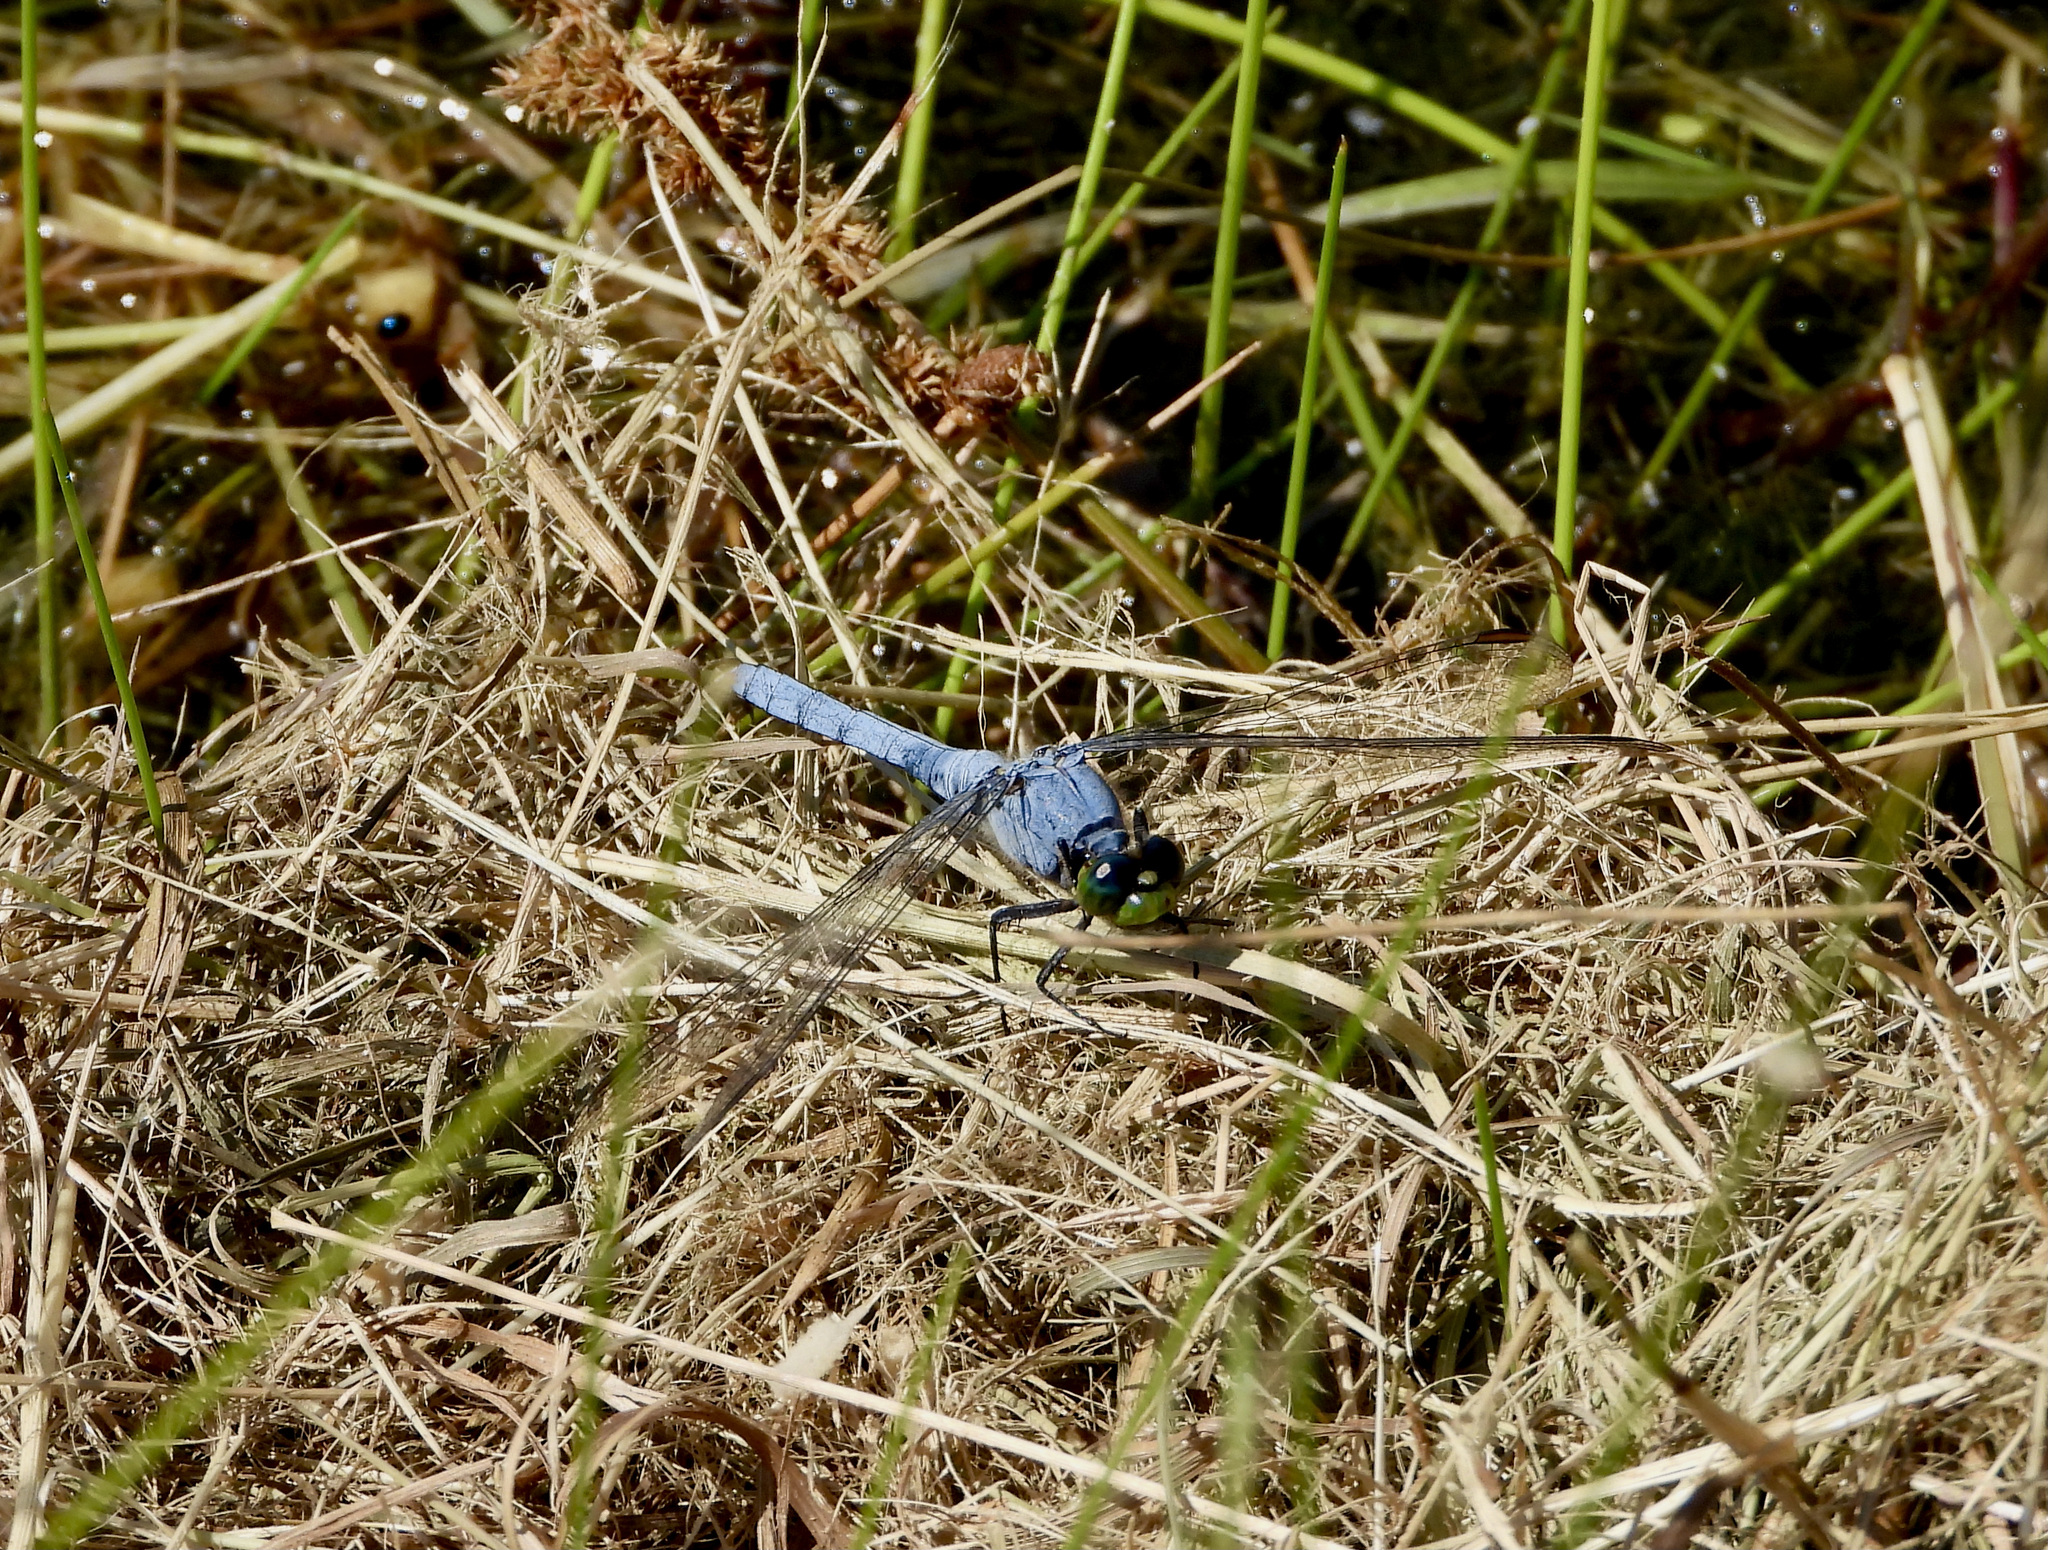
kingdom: Animalia
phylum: Arthropoda
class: Insecta
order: Odonata
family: Libellulidae
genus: Erythemis
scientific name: Erythemis simplicicollis
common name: Eastern pondhawk
